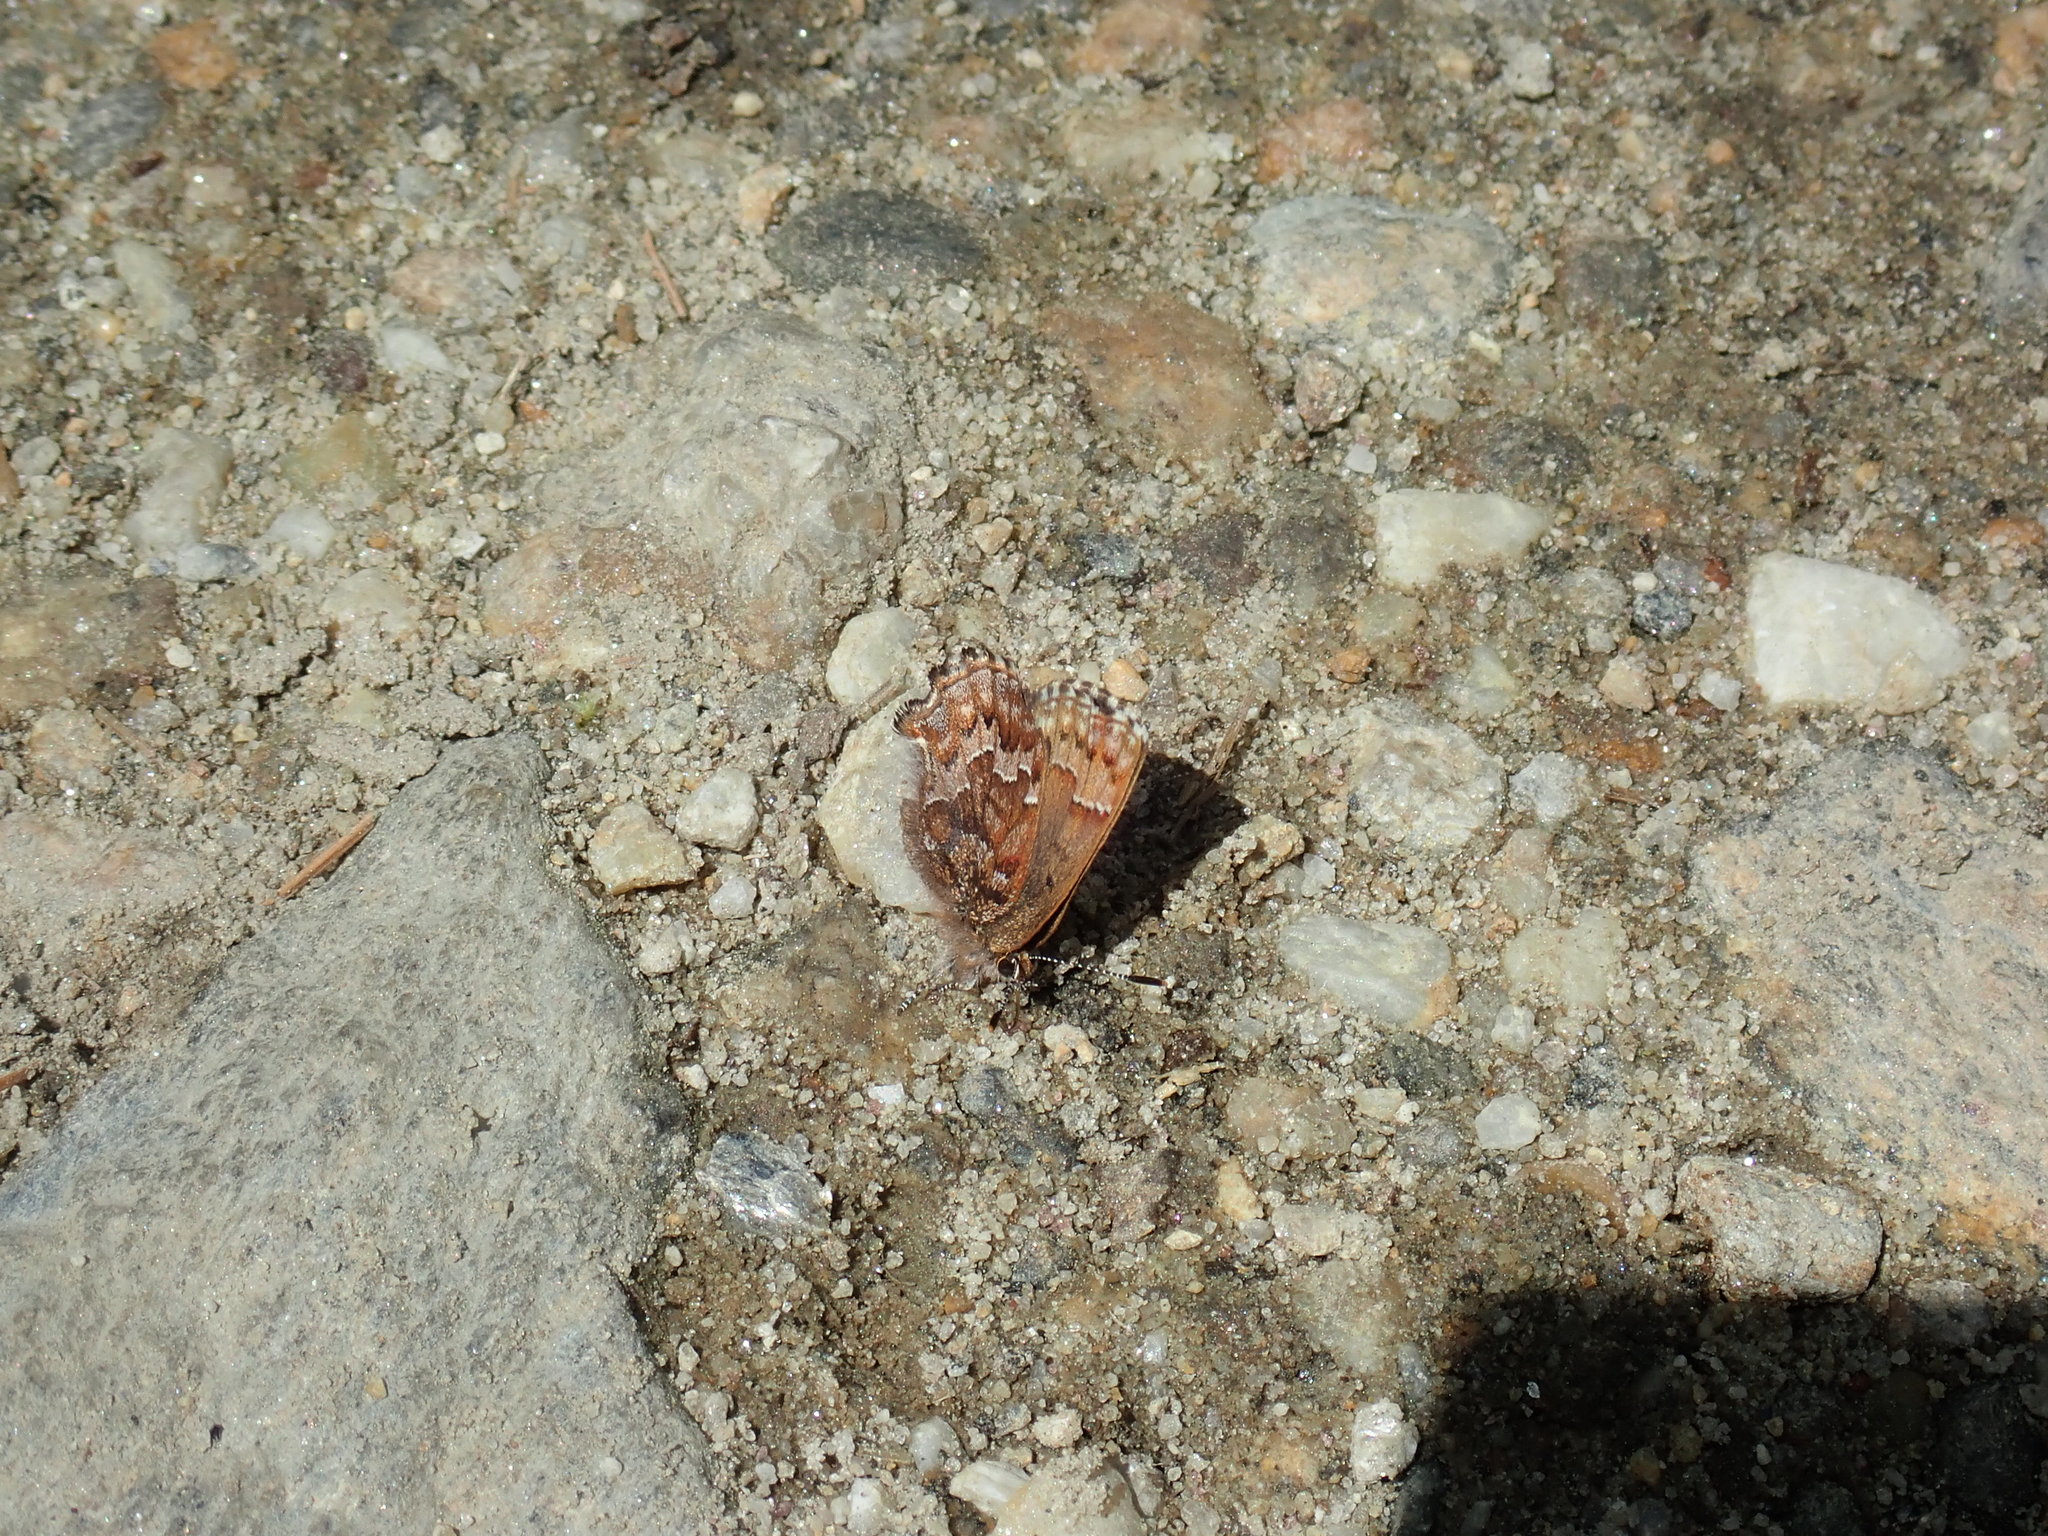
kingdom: Animalia
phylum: Arthropoda
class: Insecta
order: Lepidoptera
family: Lycaenidae
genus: Incisalia
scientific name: Incisalia niphon
